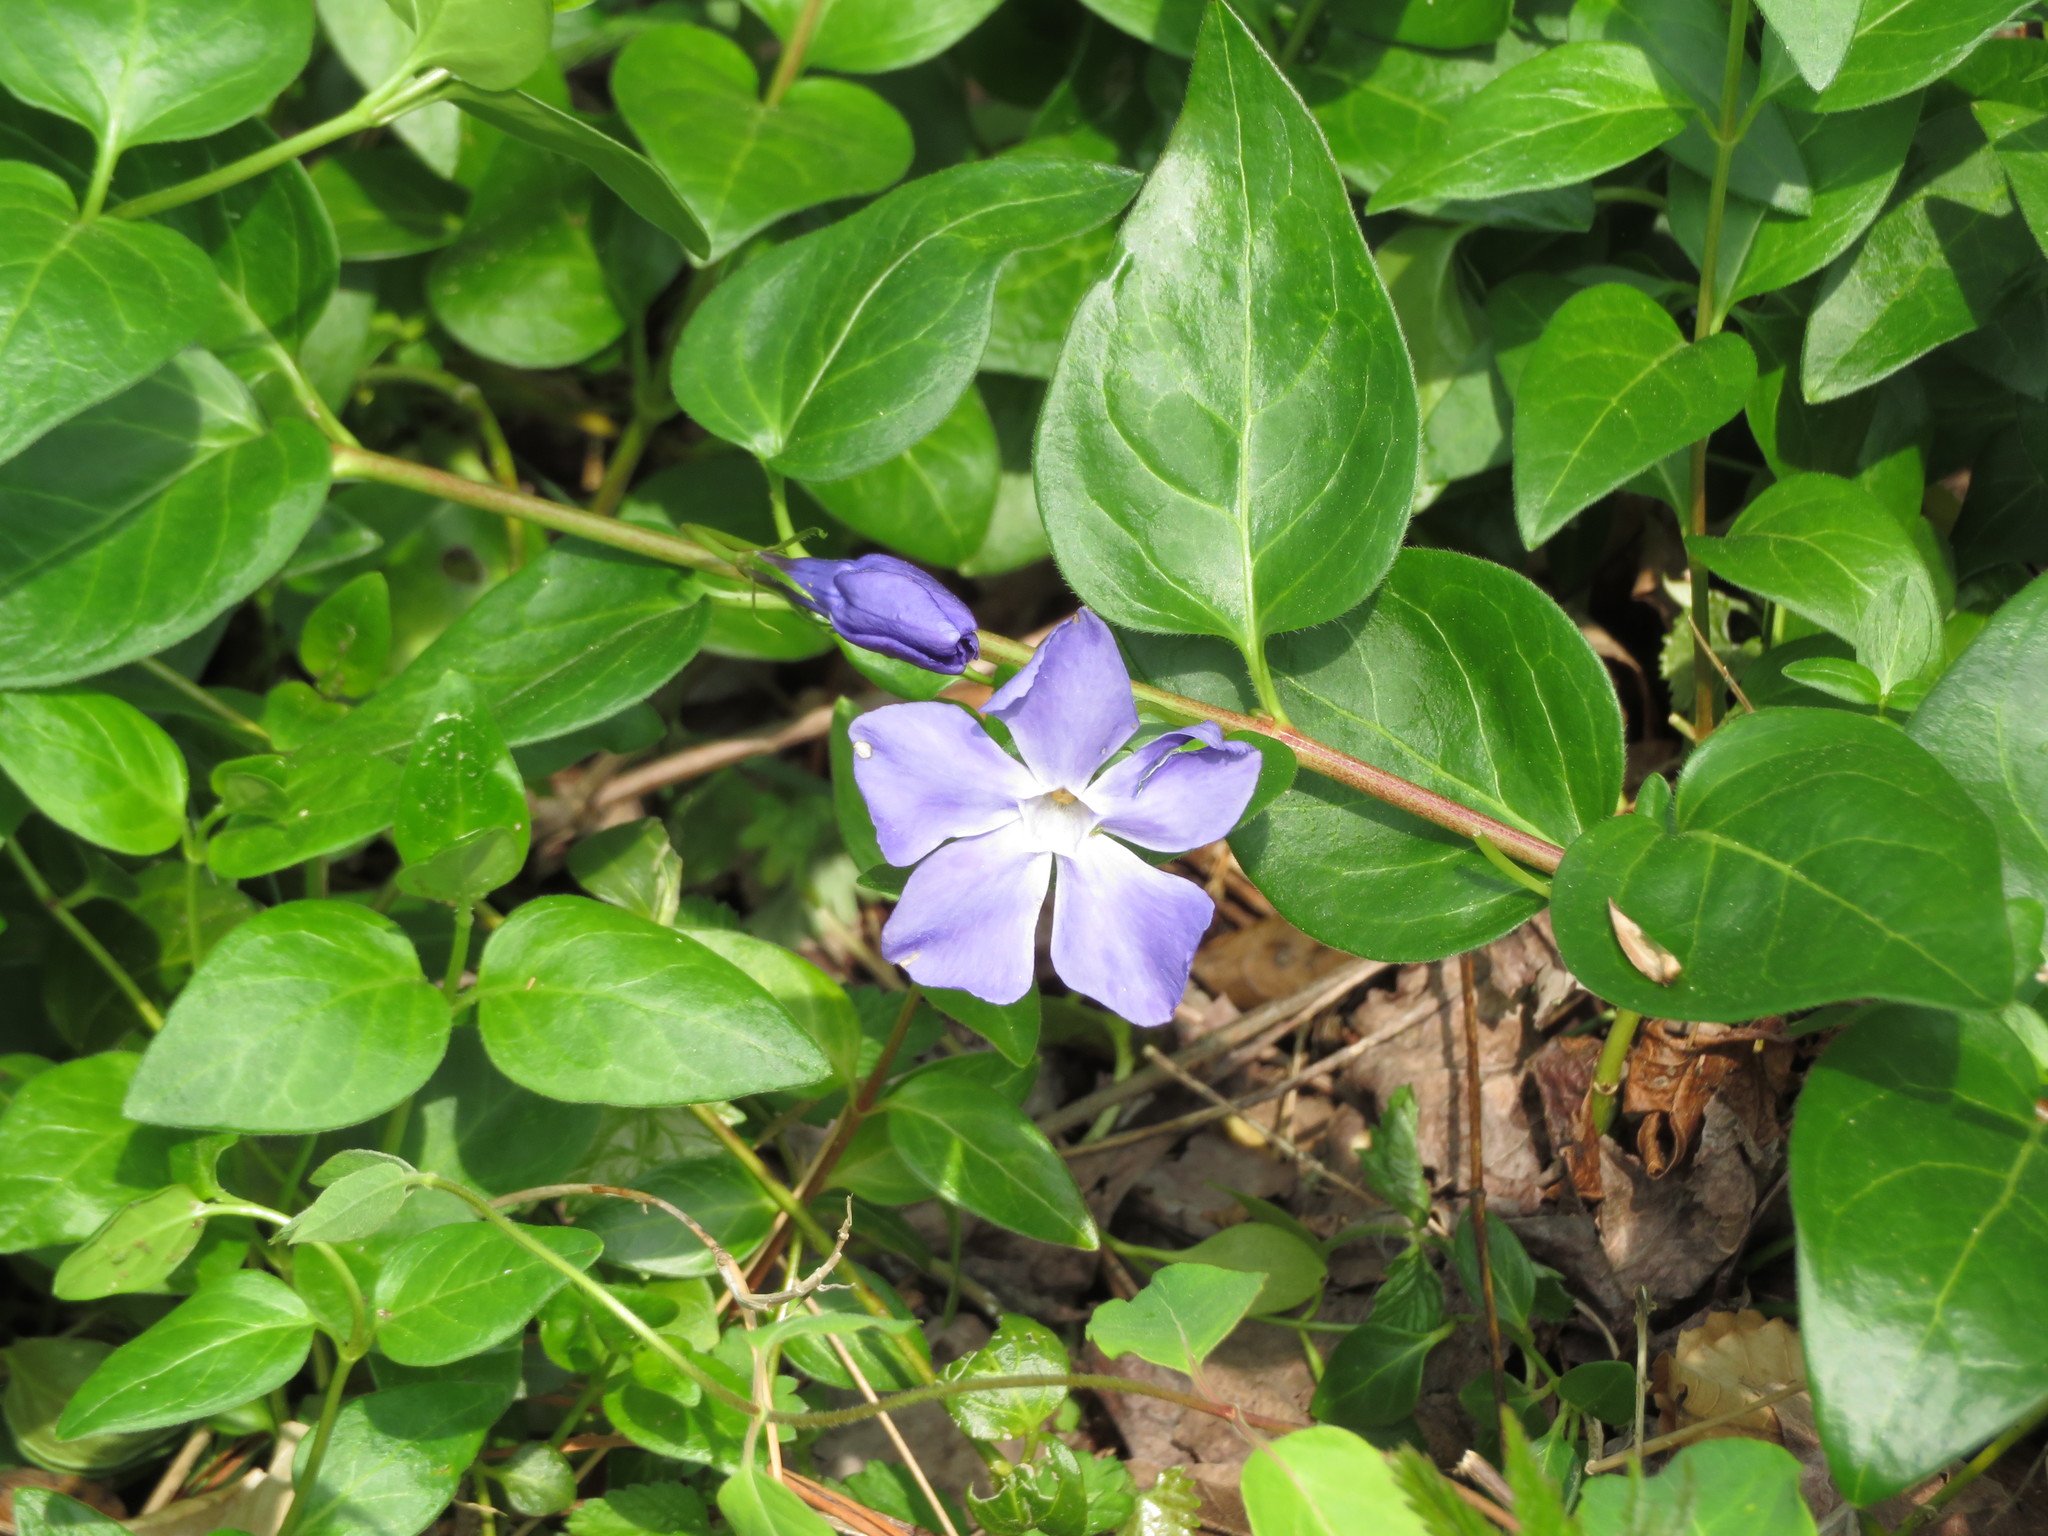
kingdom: Plantae
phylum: Tracheophyta
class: Magnoliopsida
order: Gentianales
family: Apocynaceae
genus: Vinca
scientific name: Vinca major
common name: Greater periwinkle
